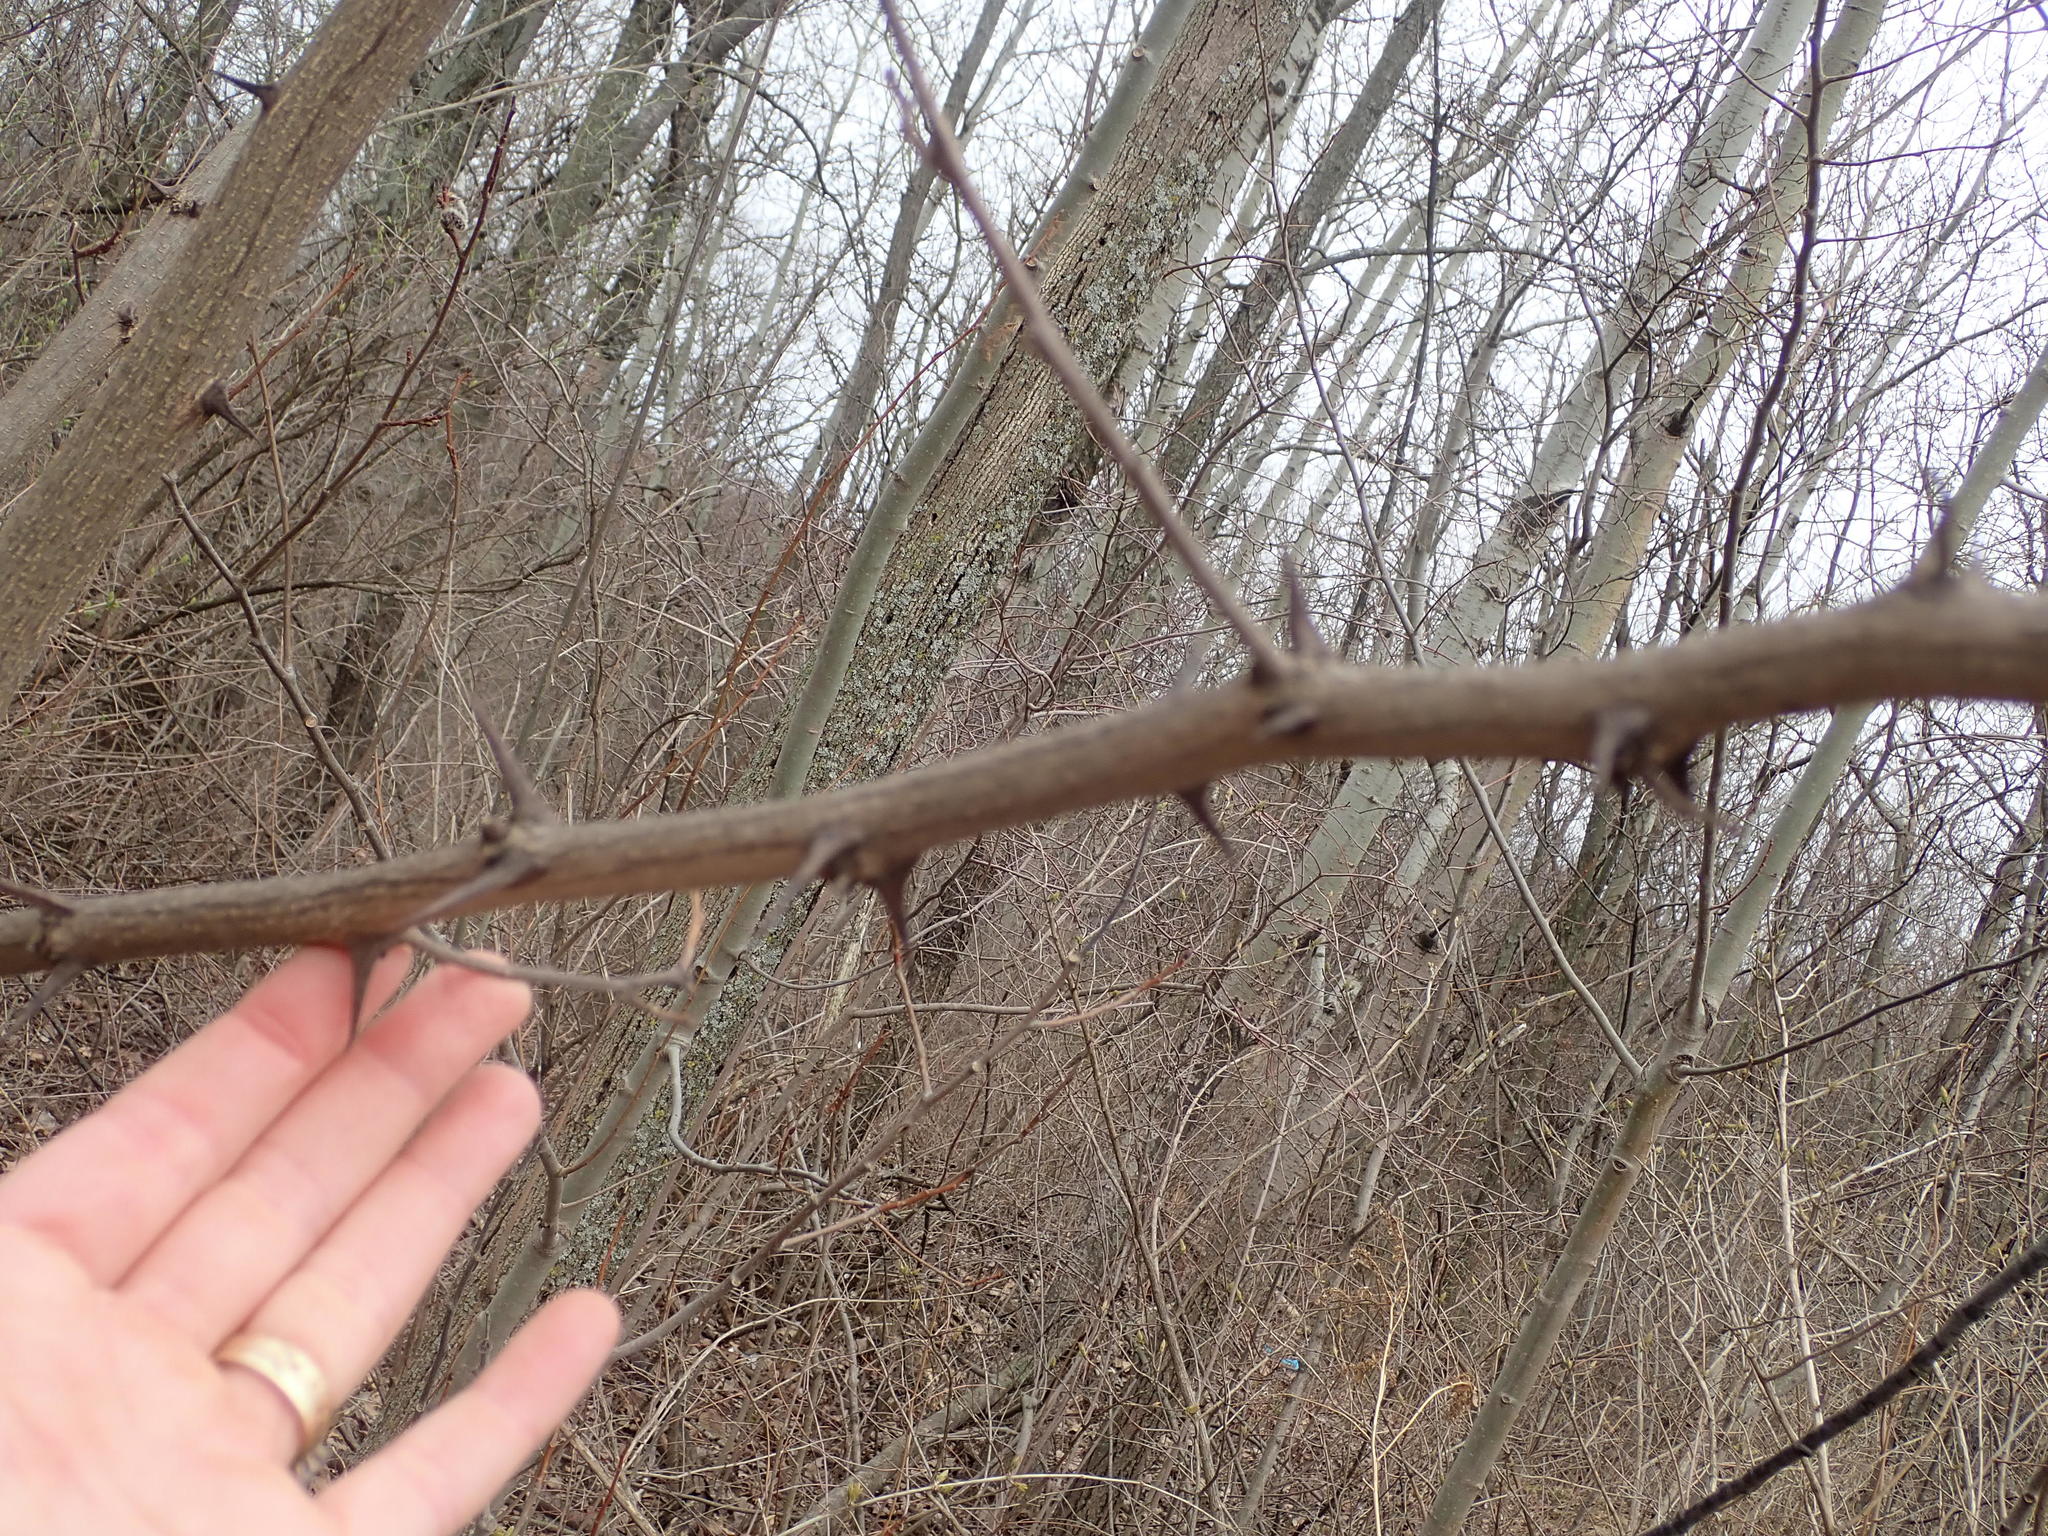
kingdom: Plantae
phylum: Tracheophyta
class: Magnoliopsida
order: Fabales
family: Fabaceae
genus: Robinia
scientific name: Robinia pseudoacacia
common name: Black locust
